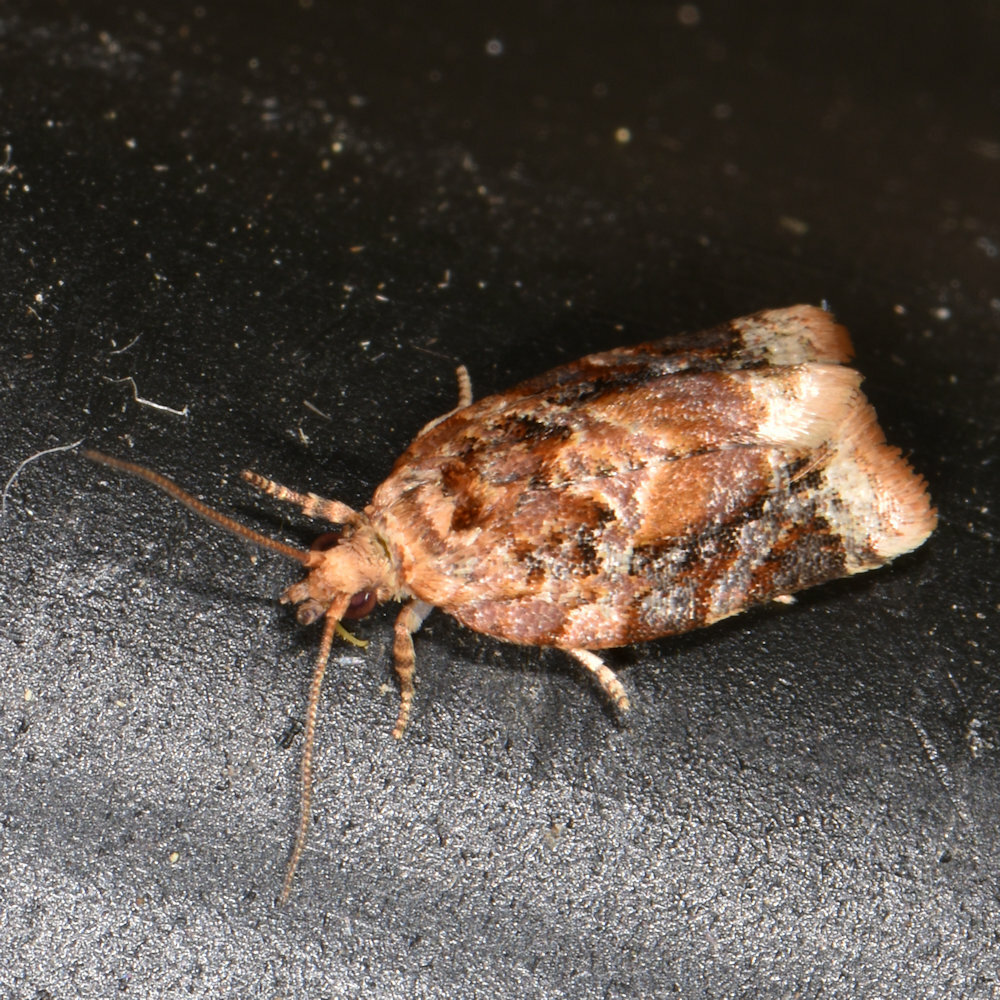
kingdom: Animalia
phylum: Arthropoda
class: Insecta
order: Lepidoptera
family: Tortricidae
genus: Argyrotaenia
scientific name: Argyrotaenia velutinana
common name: Red-banded leafroller moth
